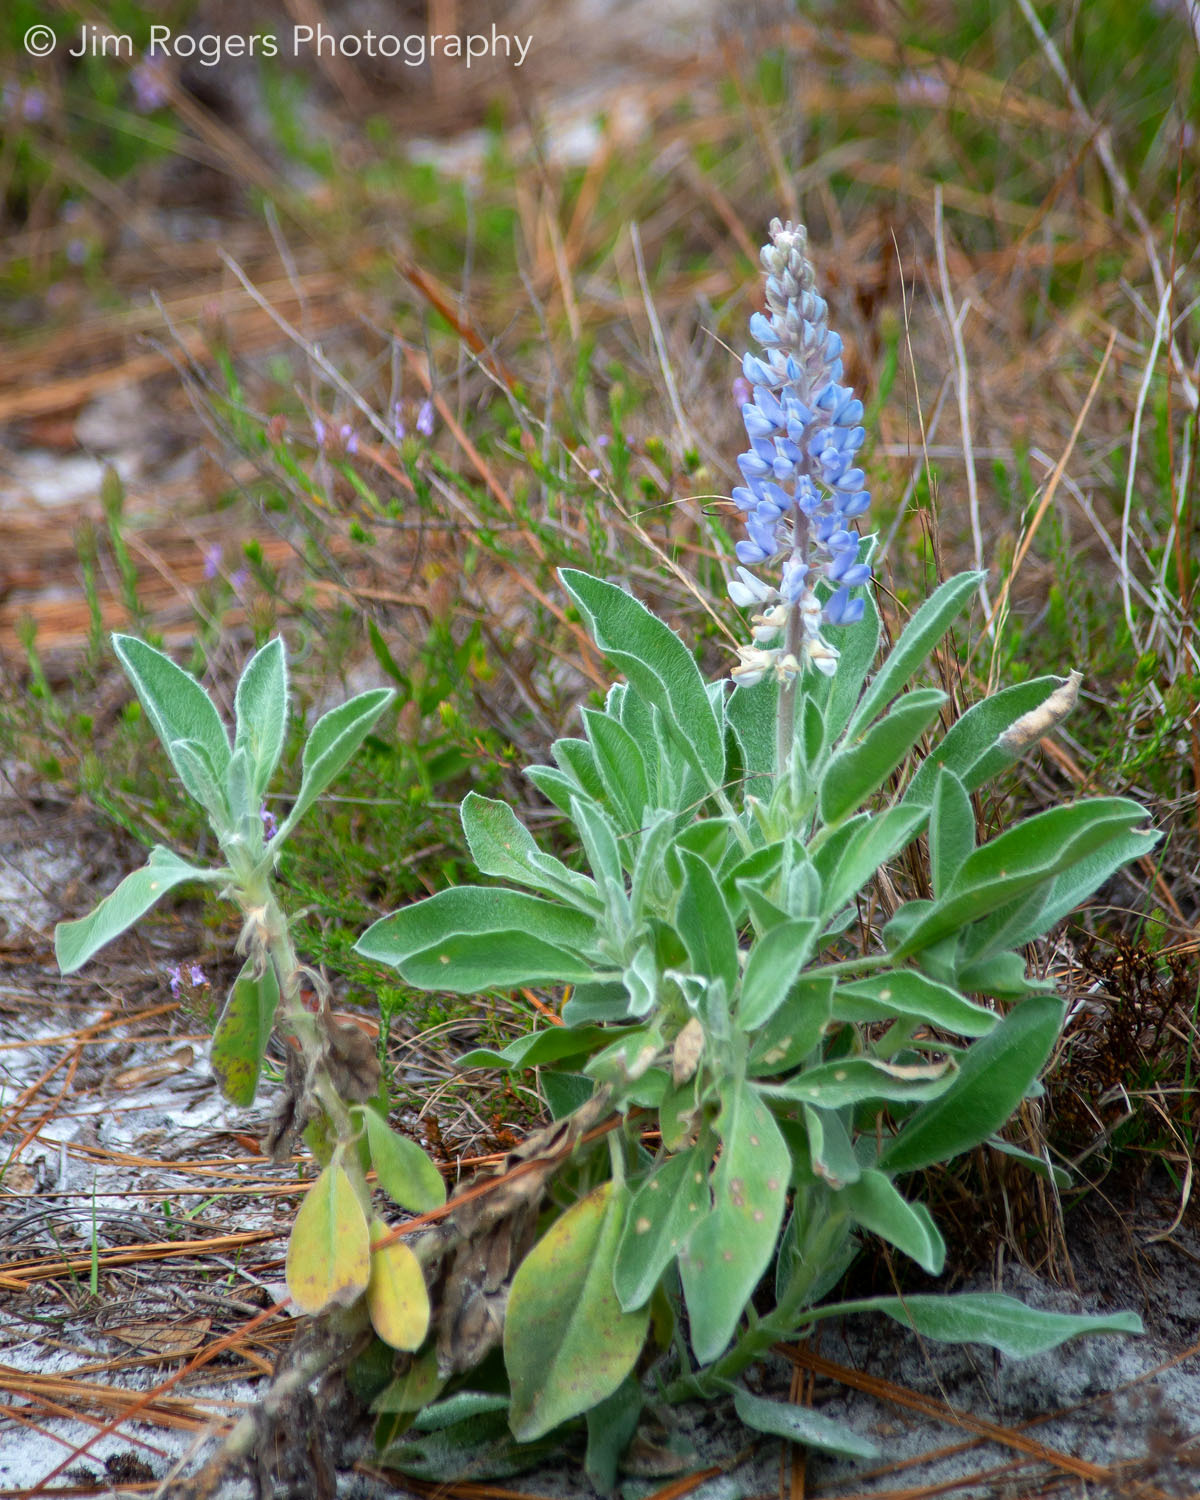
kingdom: Plantae
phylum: Tracheophyta
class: Magnoliopsida
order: Fabales
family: Fabaceae
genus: Lupinus
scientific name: Lupinus
